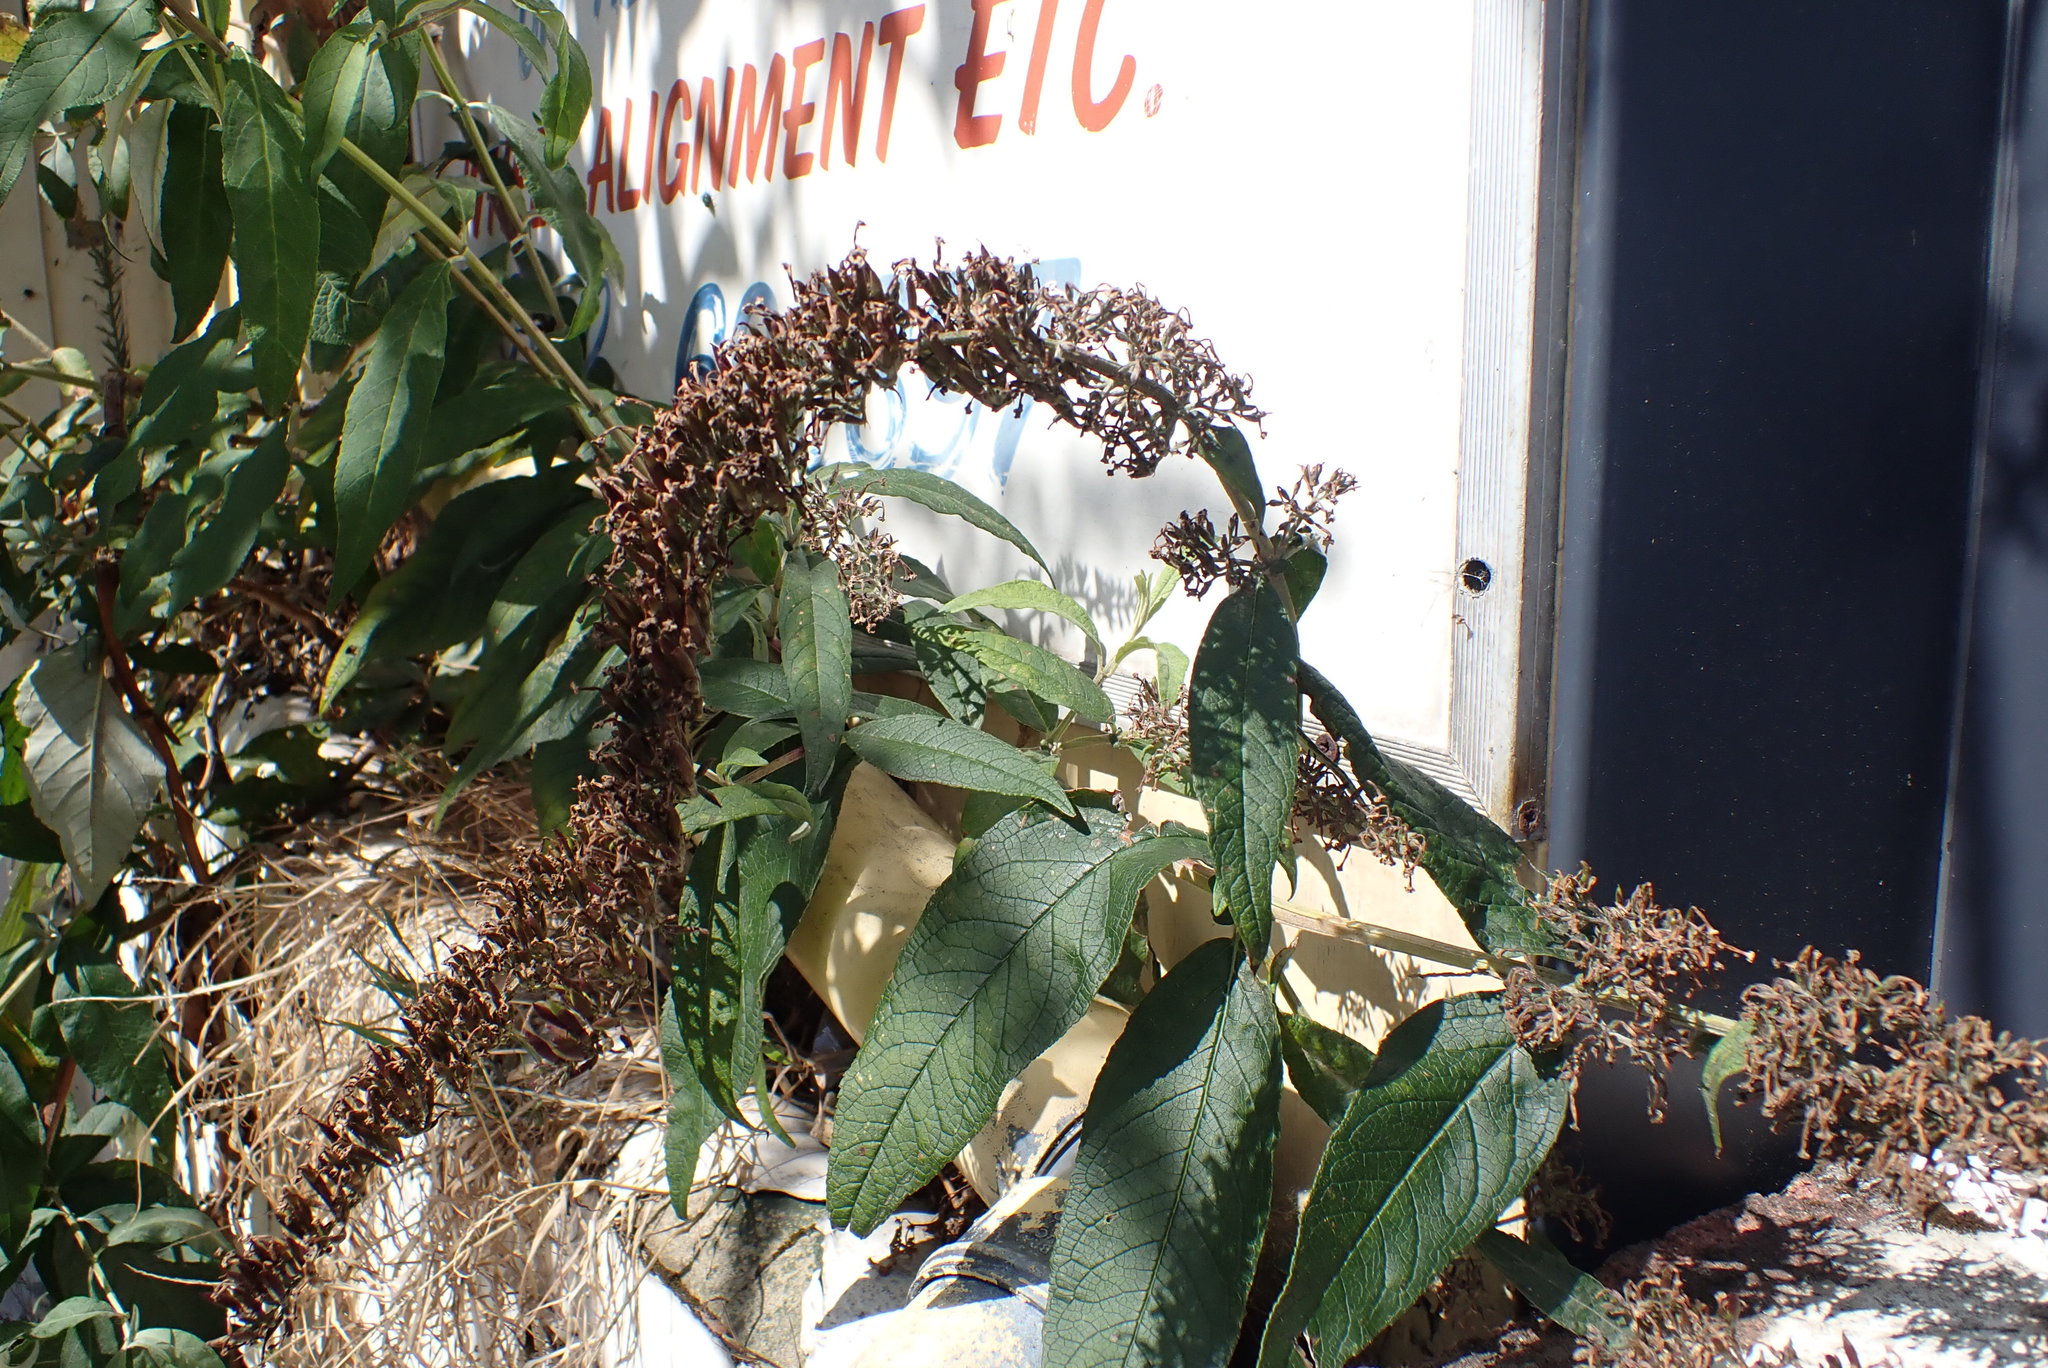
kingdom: Plantae
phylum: Tracheophyta
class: Magnoliopsida
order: Lamiales
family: Scrophulariaceae
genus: Buddleja
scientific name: Buddleja davidii
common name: Butterfly-bush
